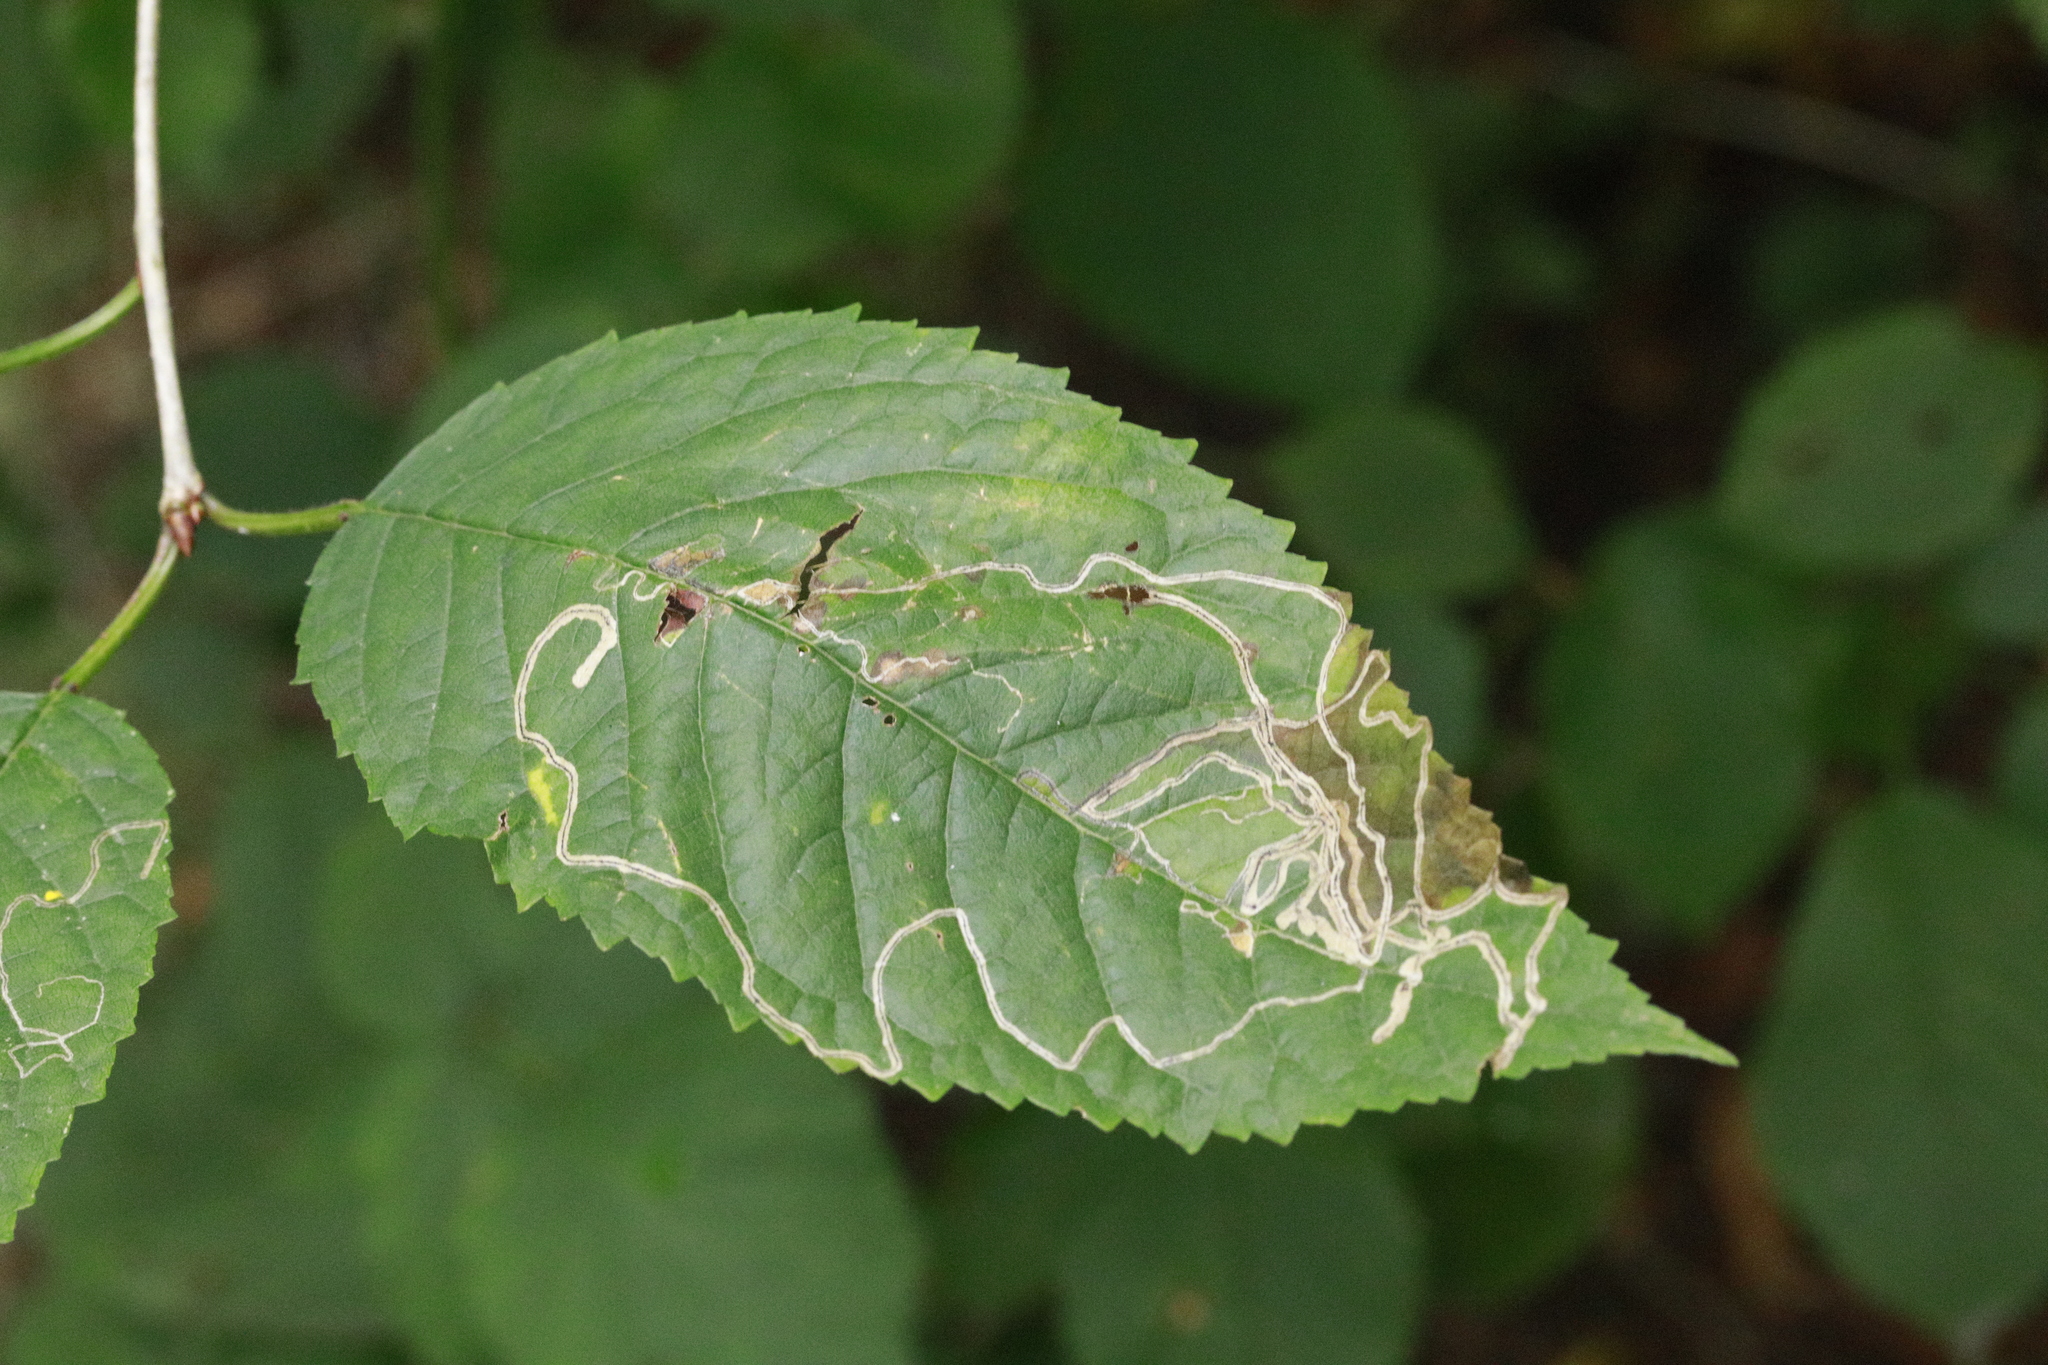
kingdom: Plantae
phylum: Tracheophyta
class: Magnoliopsida
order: Rosales
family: Rosaceae
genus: Prunus
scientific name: Prunus avium
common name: Sweet cherry
